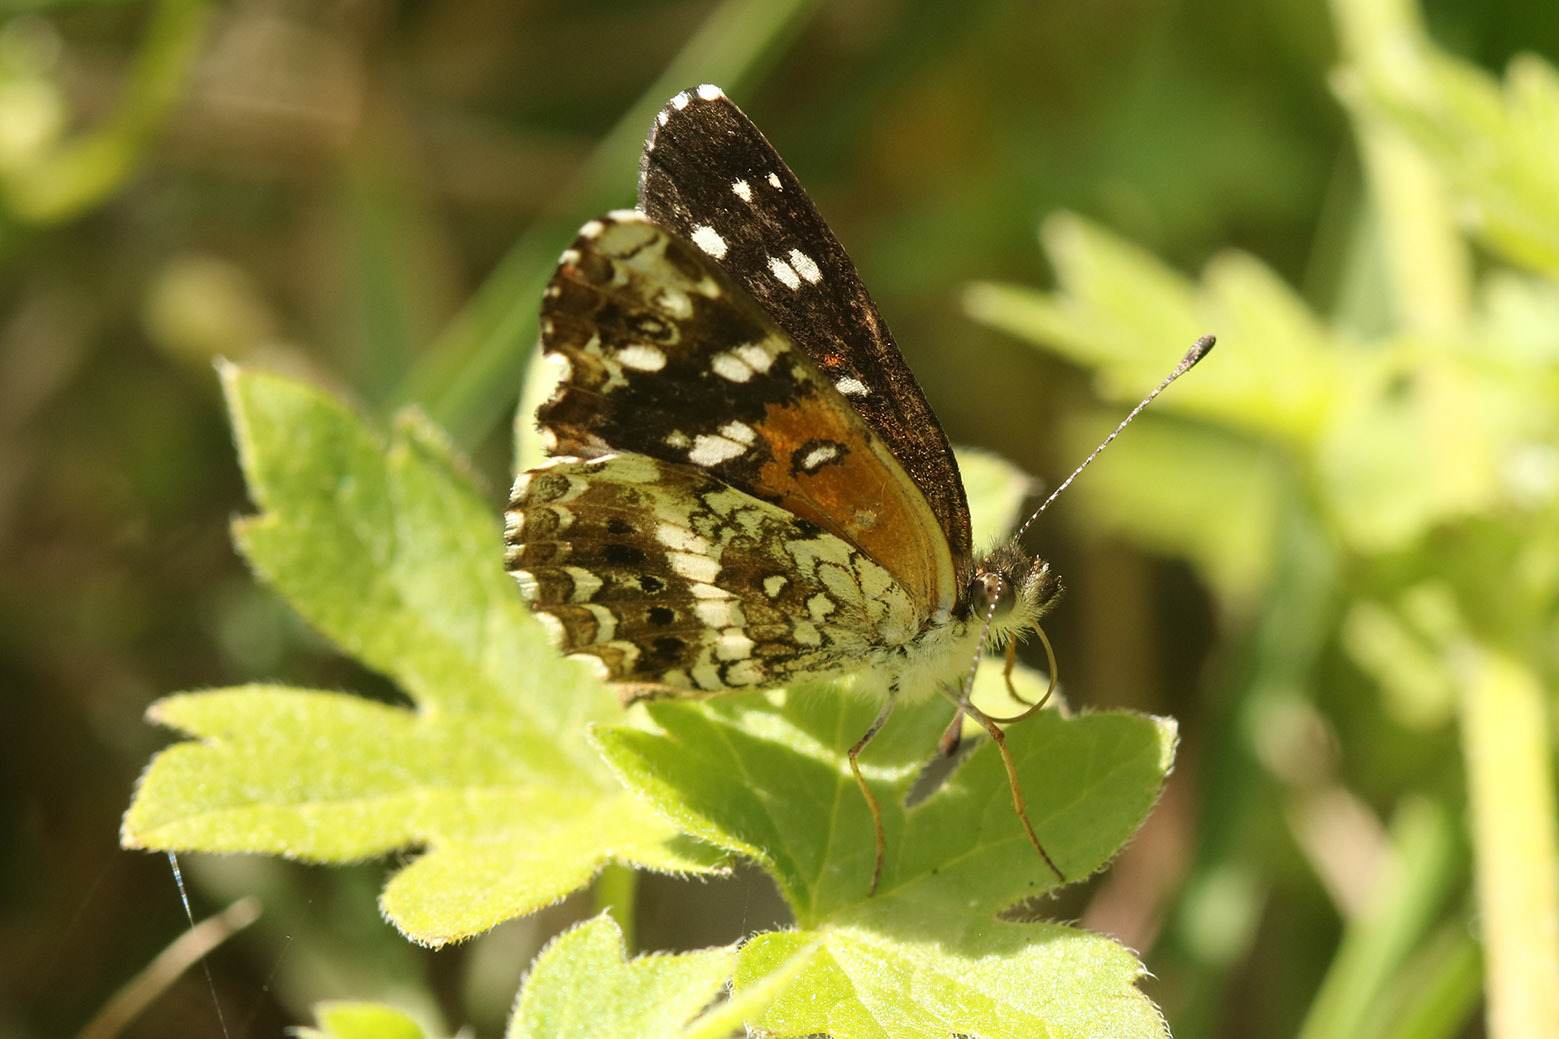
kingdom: Animalia
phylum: Arthropoda
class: Insecta
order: Lepidoptera
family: Nymphalidae
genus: Ortilia
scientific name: Ortilia ithra
